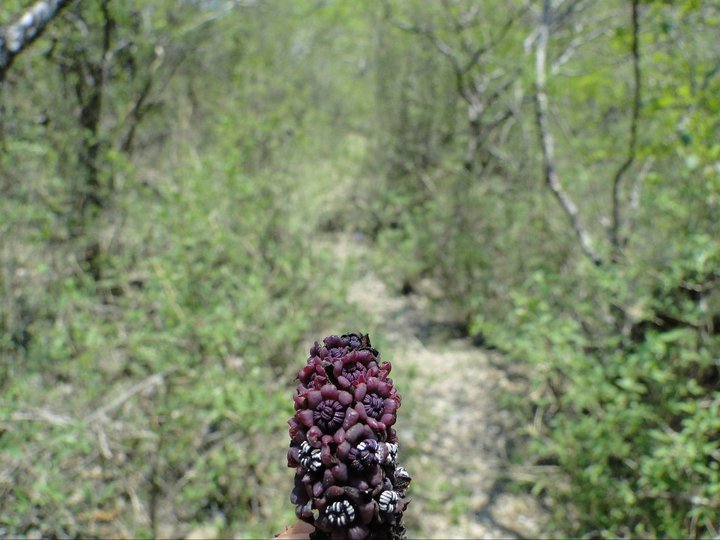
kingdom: Plantae
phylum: Tracheophyta
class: Magnoliopsida
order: Malvales
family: Cytinaceae
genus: Bdallophyton
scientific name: Bdallophyton andrieuxii
